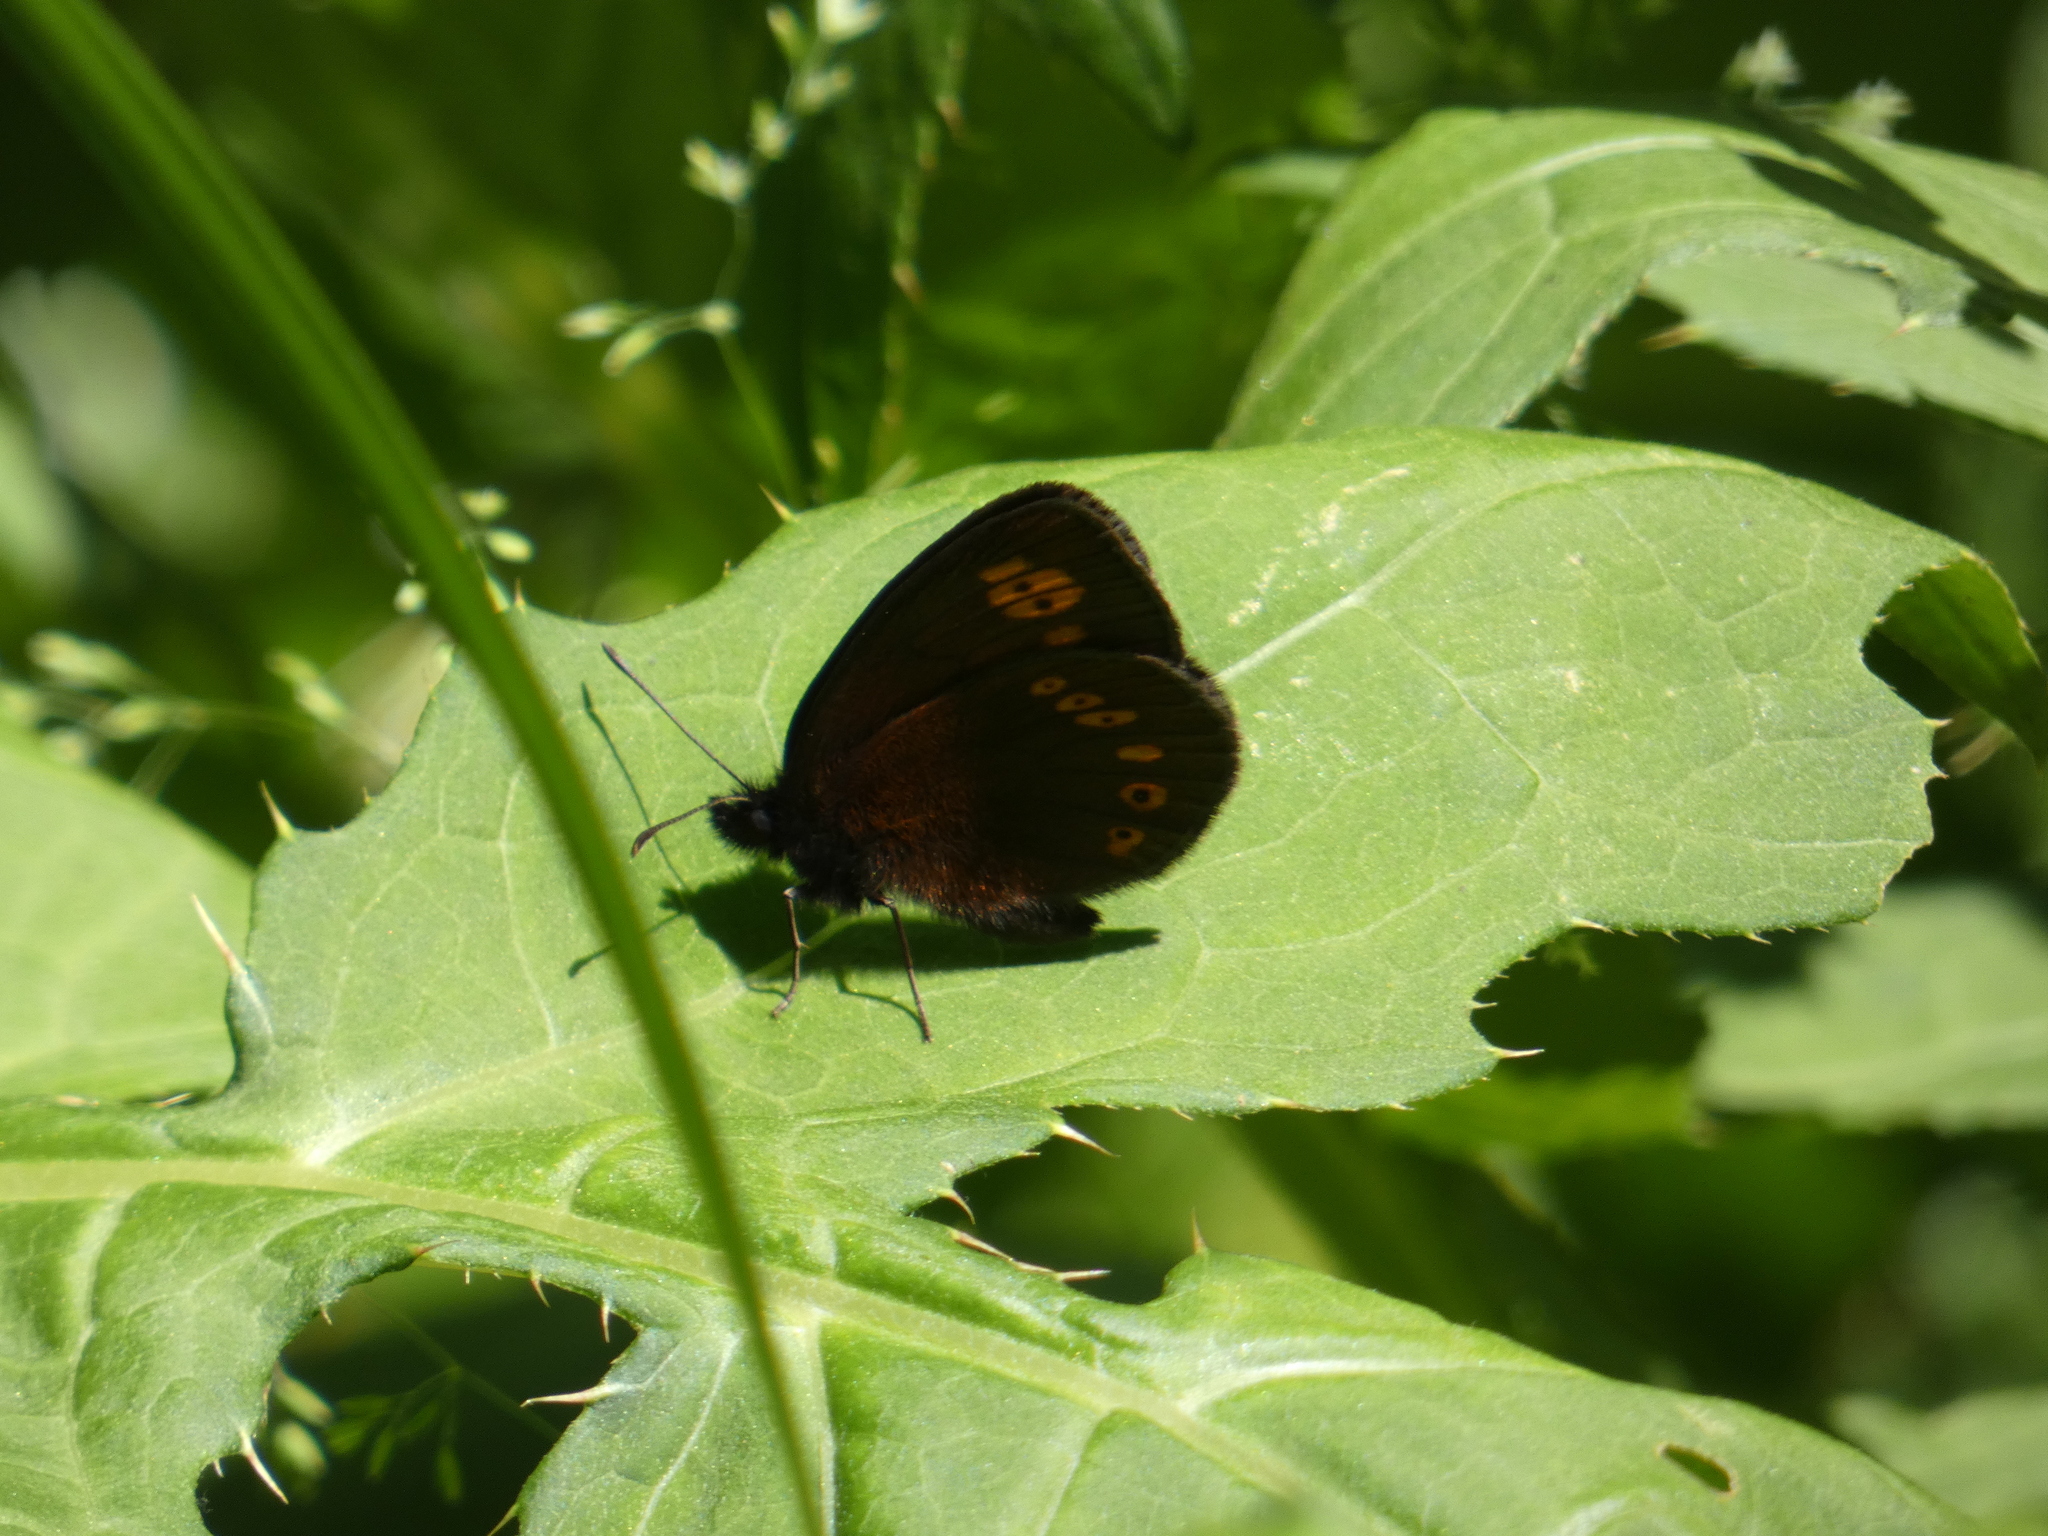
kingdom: Animalia
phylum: Arthropoda
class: Insecta
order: Lepidoptera
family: Nymphalidae
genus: Erebia
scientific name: Erebia alberganus
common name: Almond-eyed ringlet
